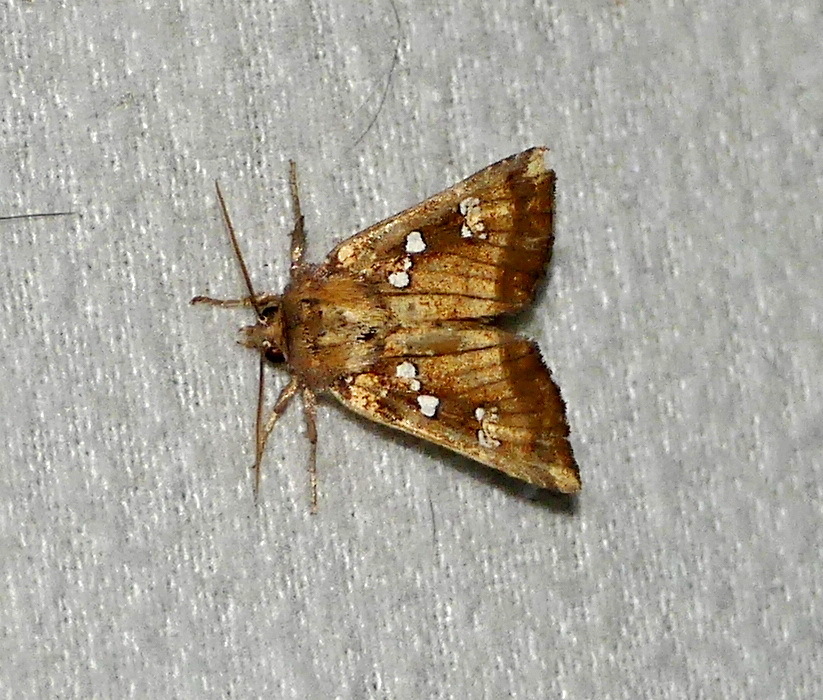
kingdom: Animalia
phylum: Arthropoda
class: Insecta
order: Lepidoptera
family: Noctuidae
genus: Papaipema
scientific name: Papaipema arctivorens
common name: Northern burdock borer moth
